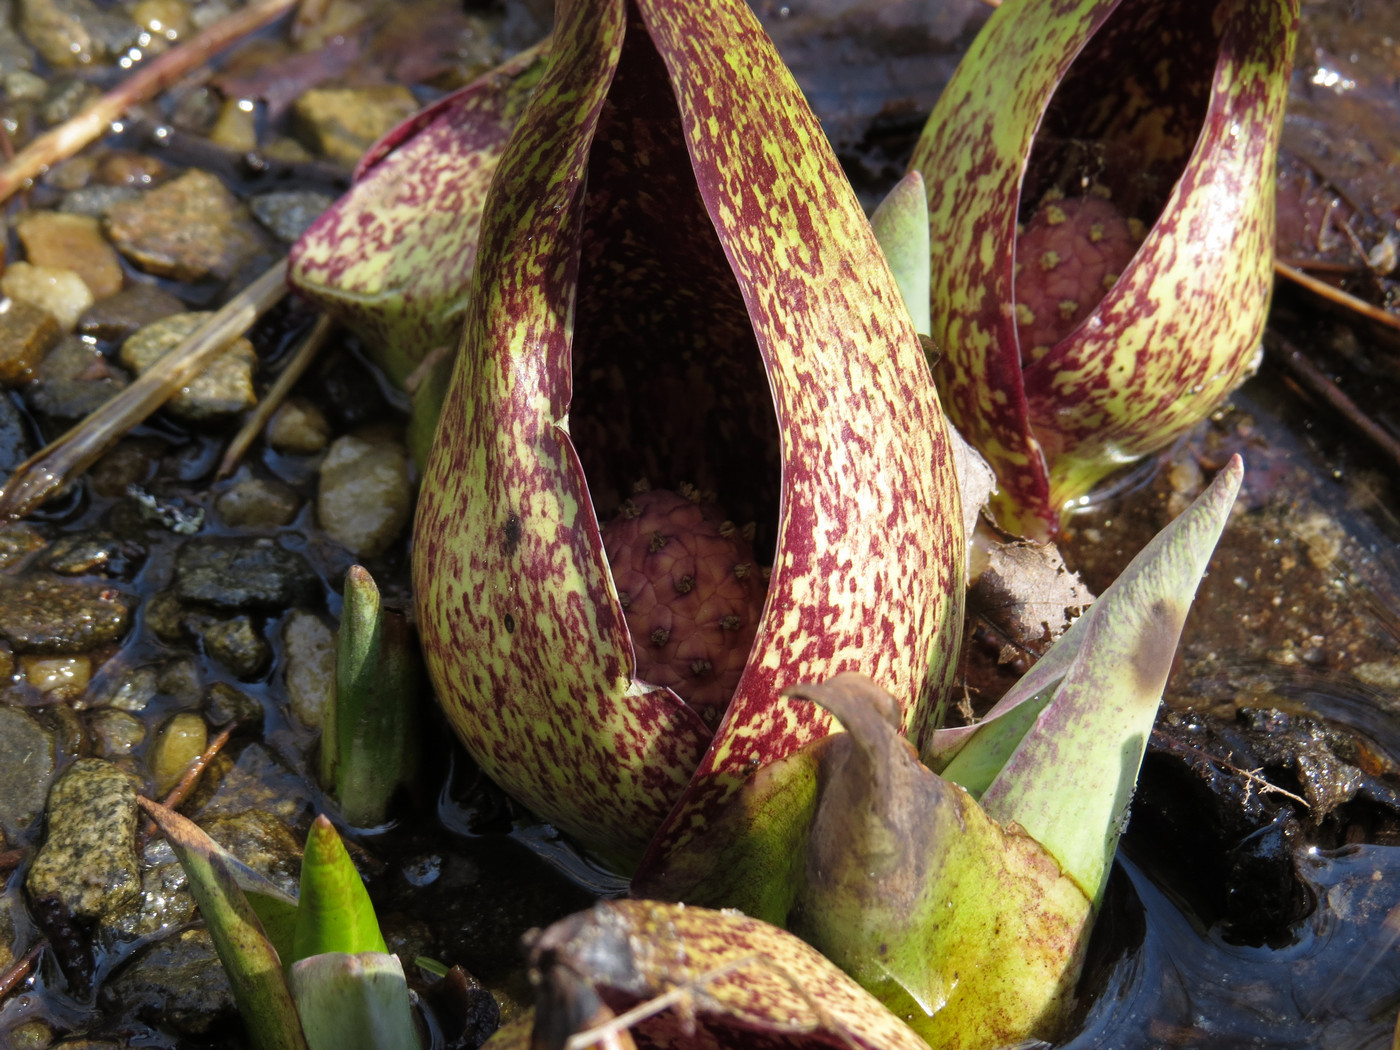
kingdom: Plantae
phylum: Tracheophyta
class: Liliopsida
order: Alismatales
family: Araceae
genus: Symplocarpus
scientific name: Symplocarpus foetidus
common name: Eastern skunk cabbage
